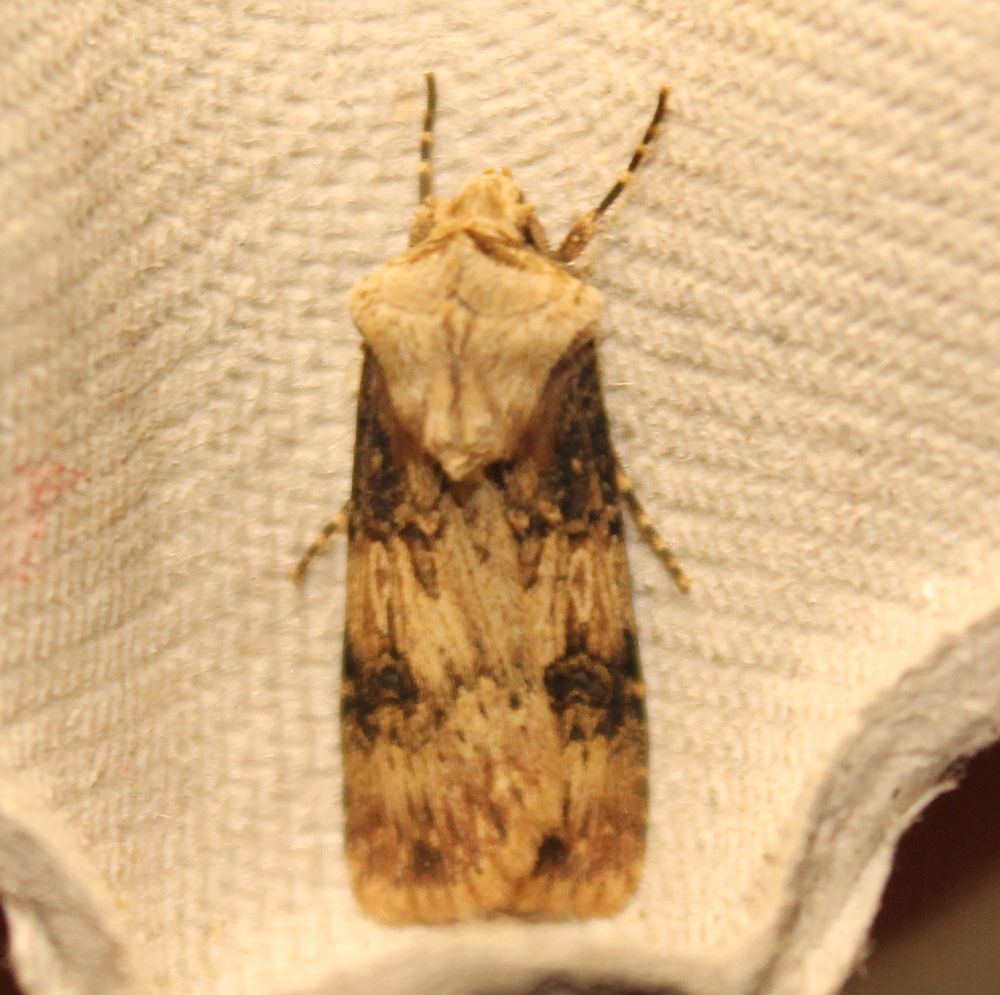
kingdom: Animalia
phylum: Arthropoda
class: Insecta
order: Lepidoptera
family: Noctuidae
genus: Agrotis
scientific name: Agrotis puta
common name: Shuttle-shaped dart
